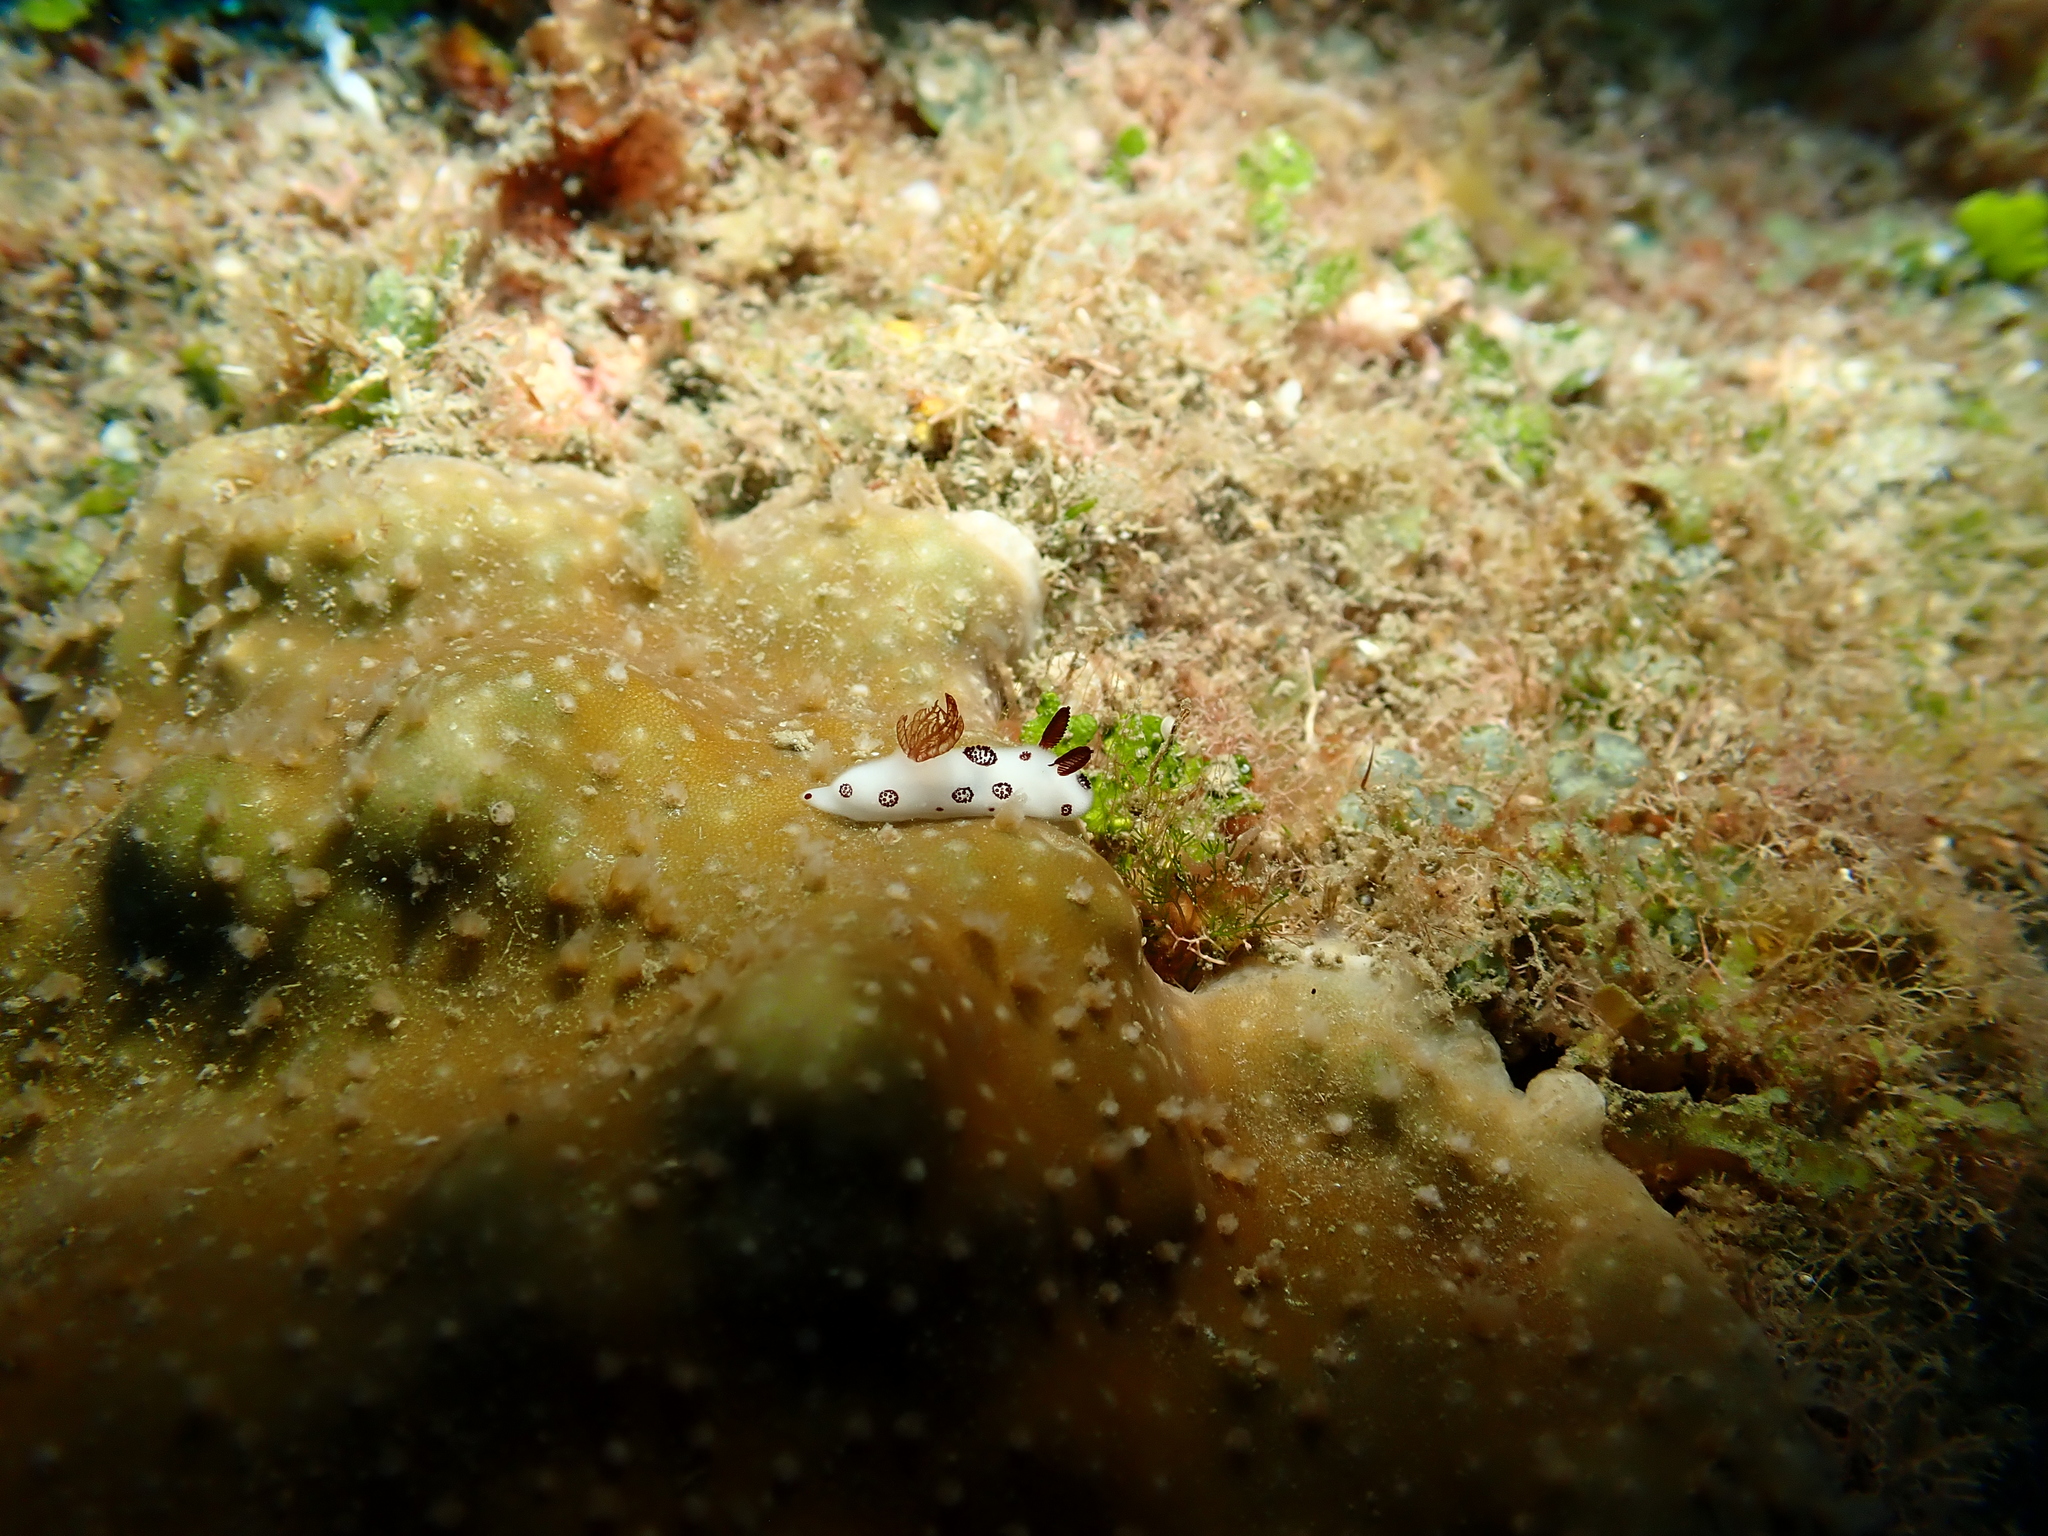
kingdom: Animalia
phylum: Mollusca
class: Gastropoda
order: Nudibranchia
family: Discodorididae
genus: Jorunna
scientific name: Jorunna funebris
